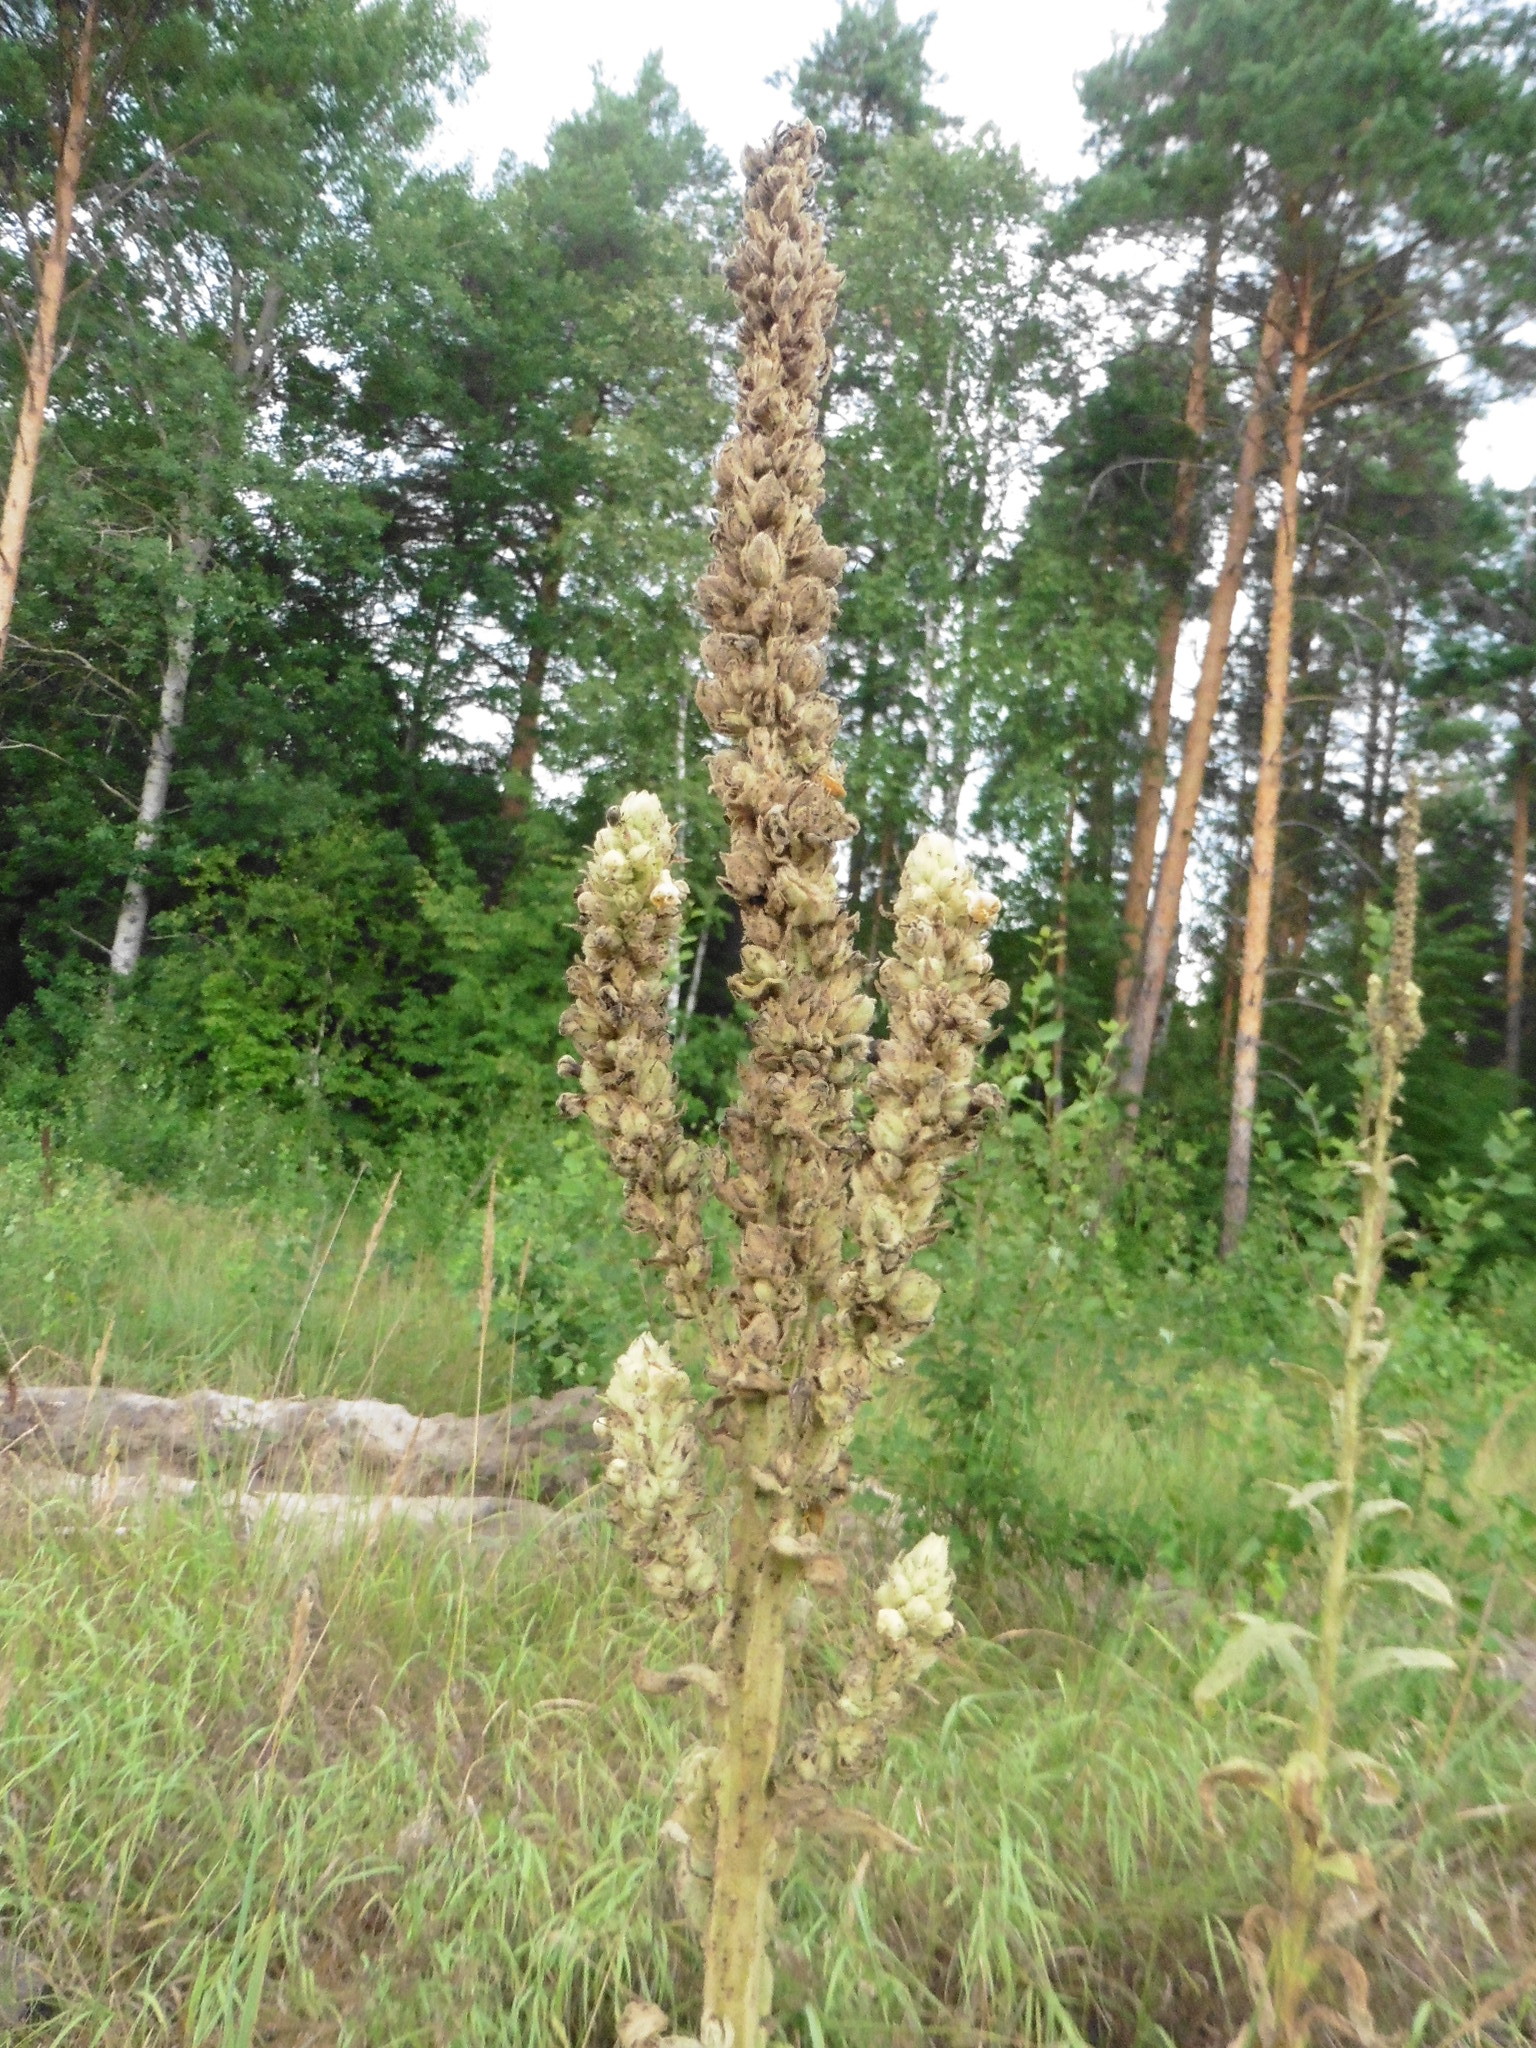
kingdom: Plantae
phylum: Tracheophyta
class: Magnoliopsida
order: Lamiales
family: Scrophulariaceae
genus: Verbascum
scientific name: Verbascum thapsus
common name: Common mullein
